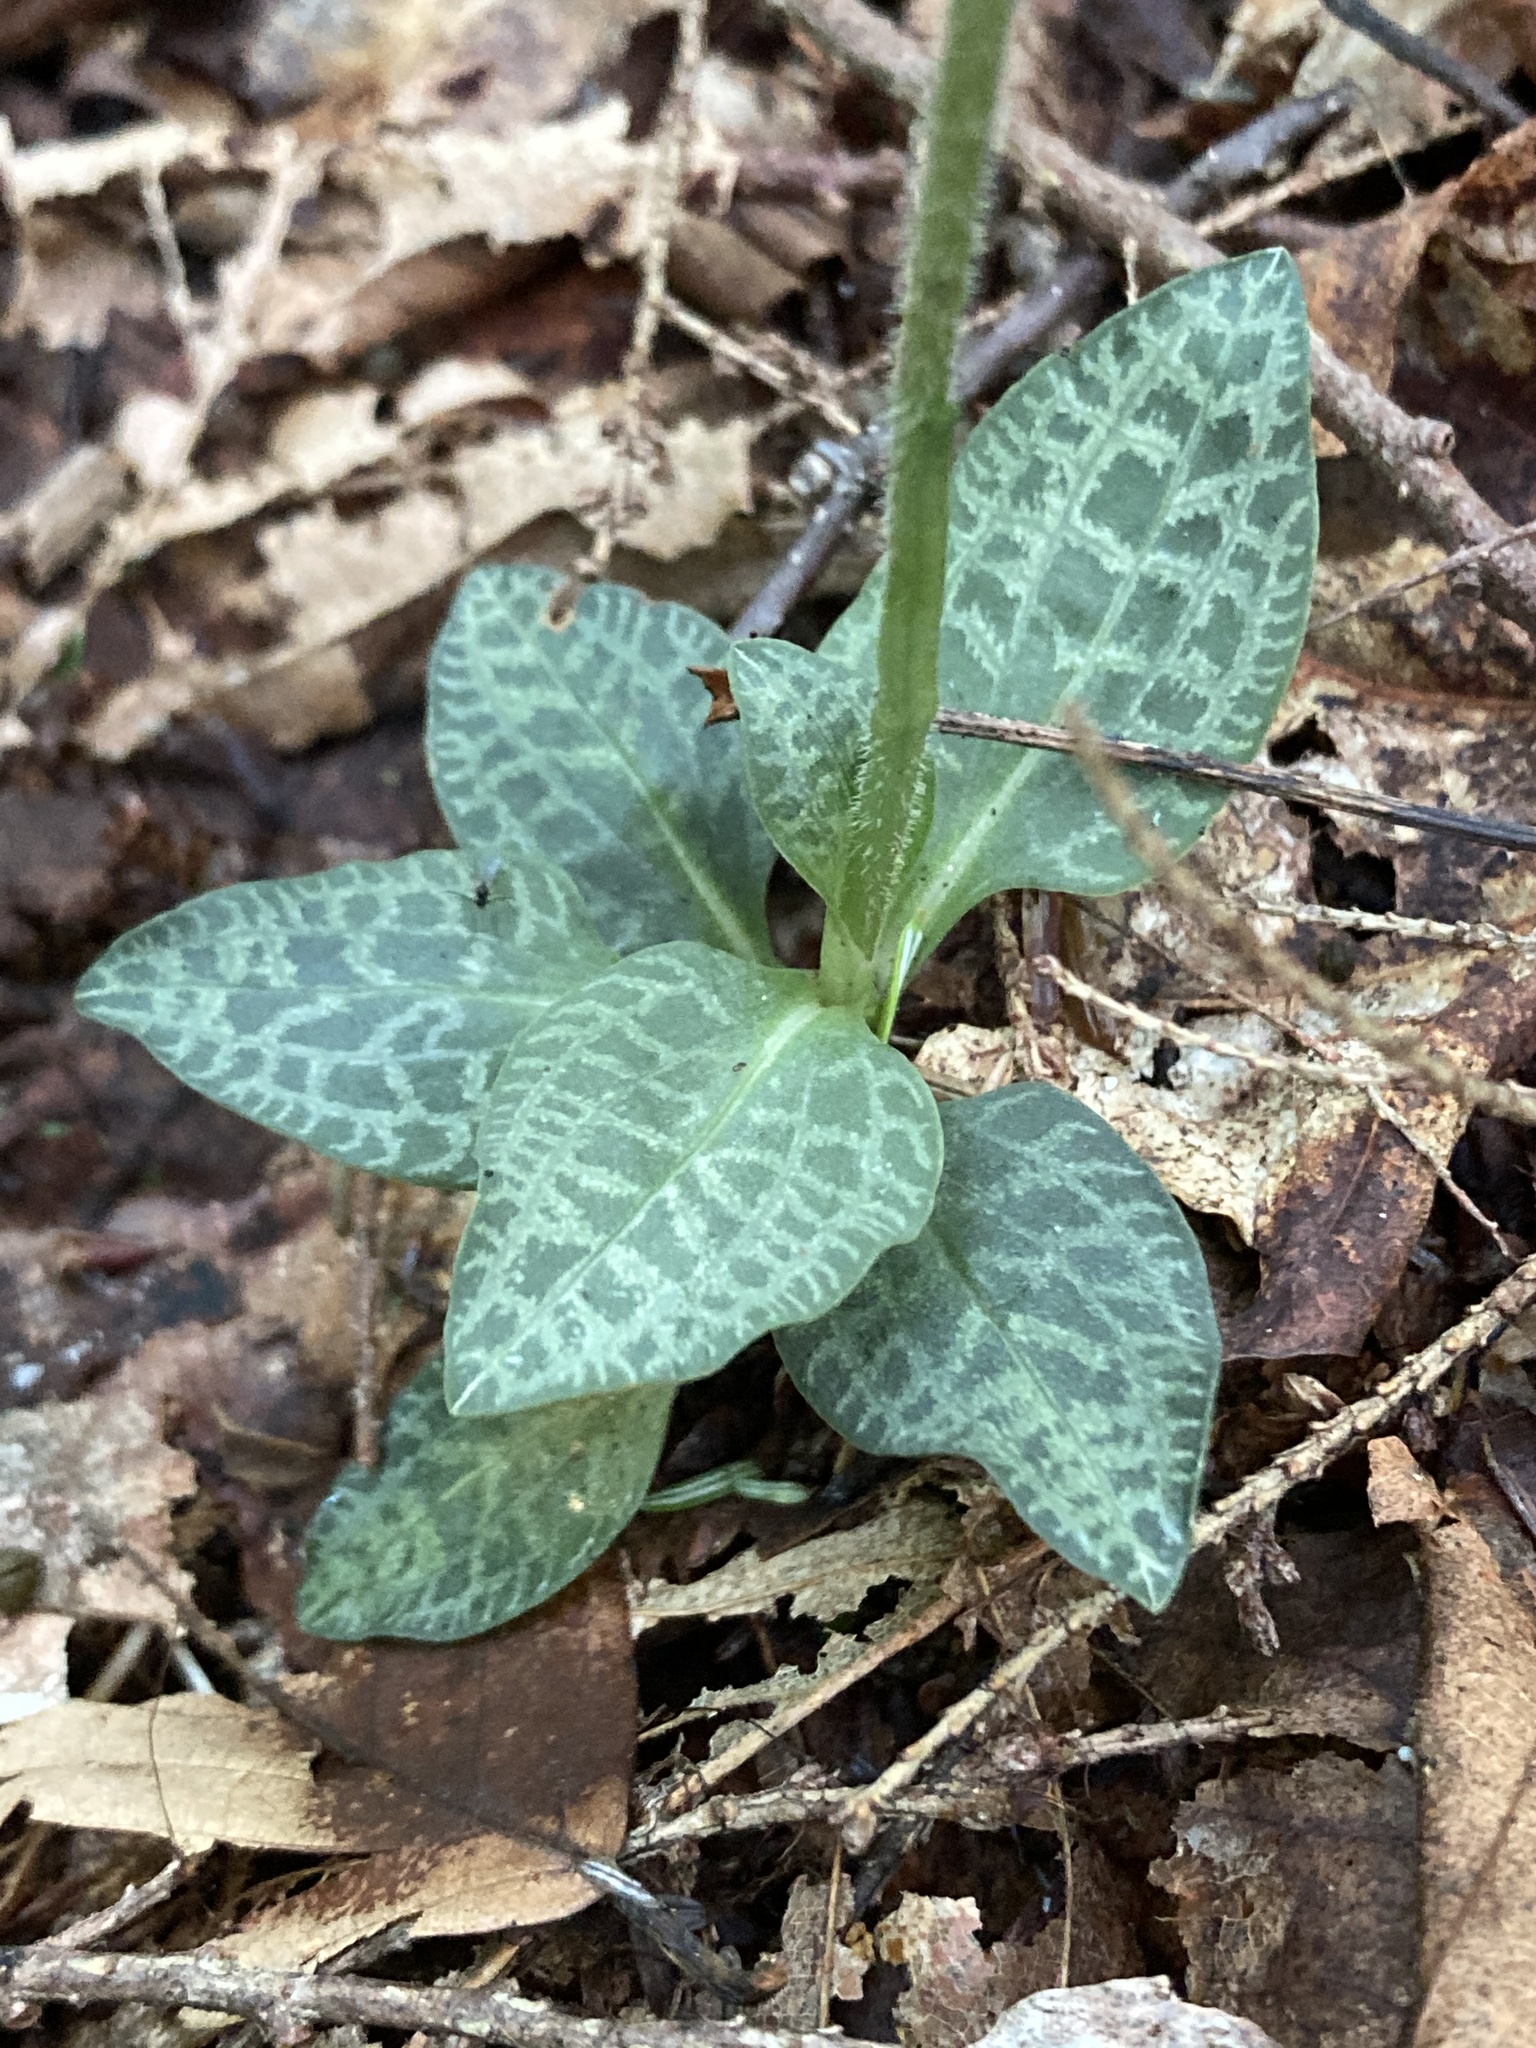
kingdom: Plantae
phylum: Tracheophyta
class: Liliopsida
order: Asparagales
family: Orchidaceae
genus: Goodyera
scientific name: Goodyera tesselata
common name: Checkered rattlesnake-plantain
